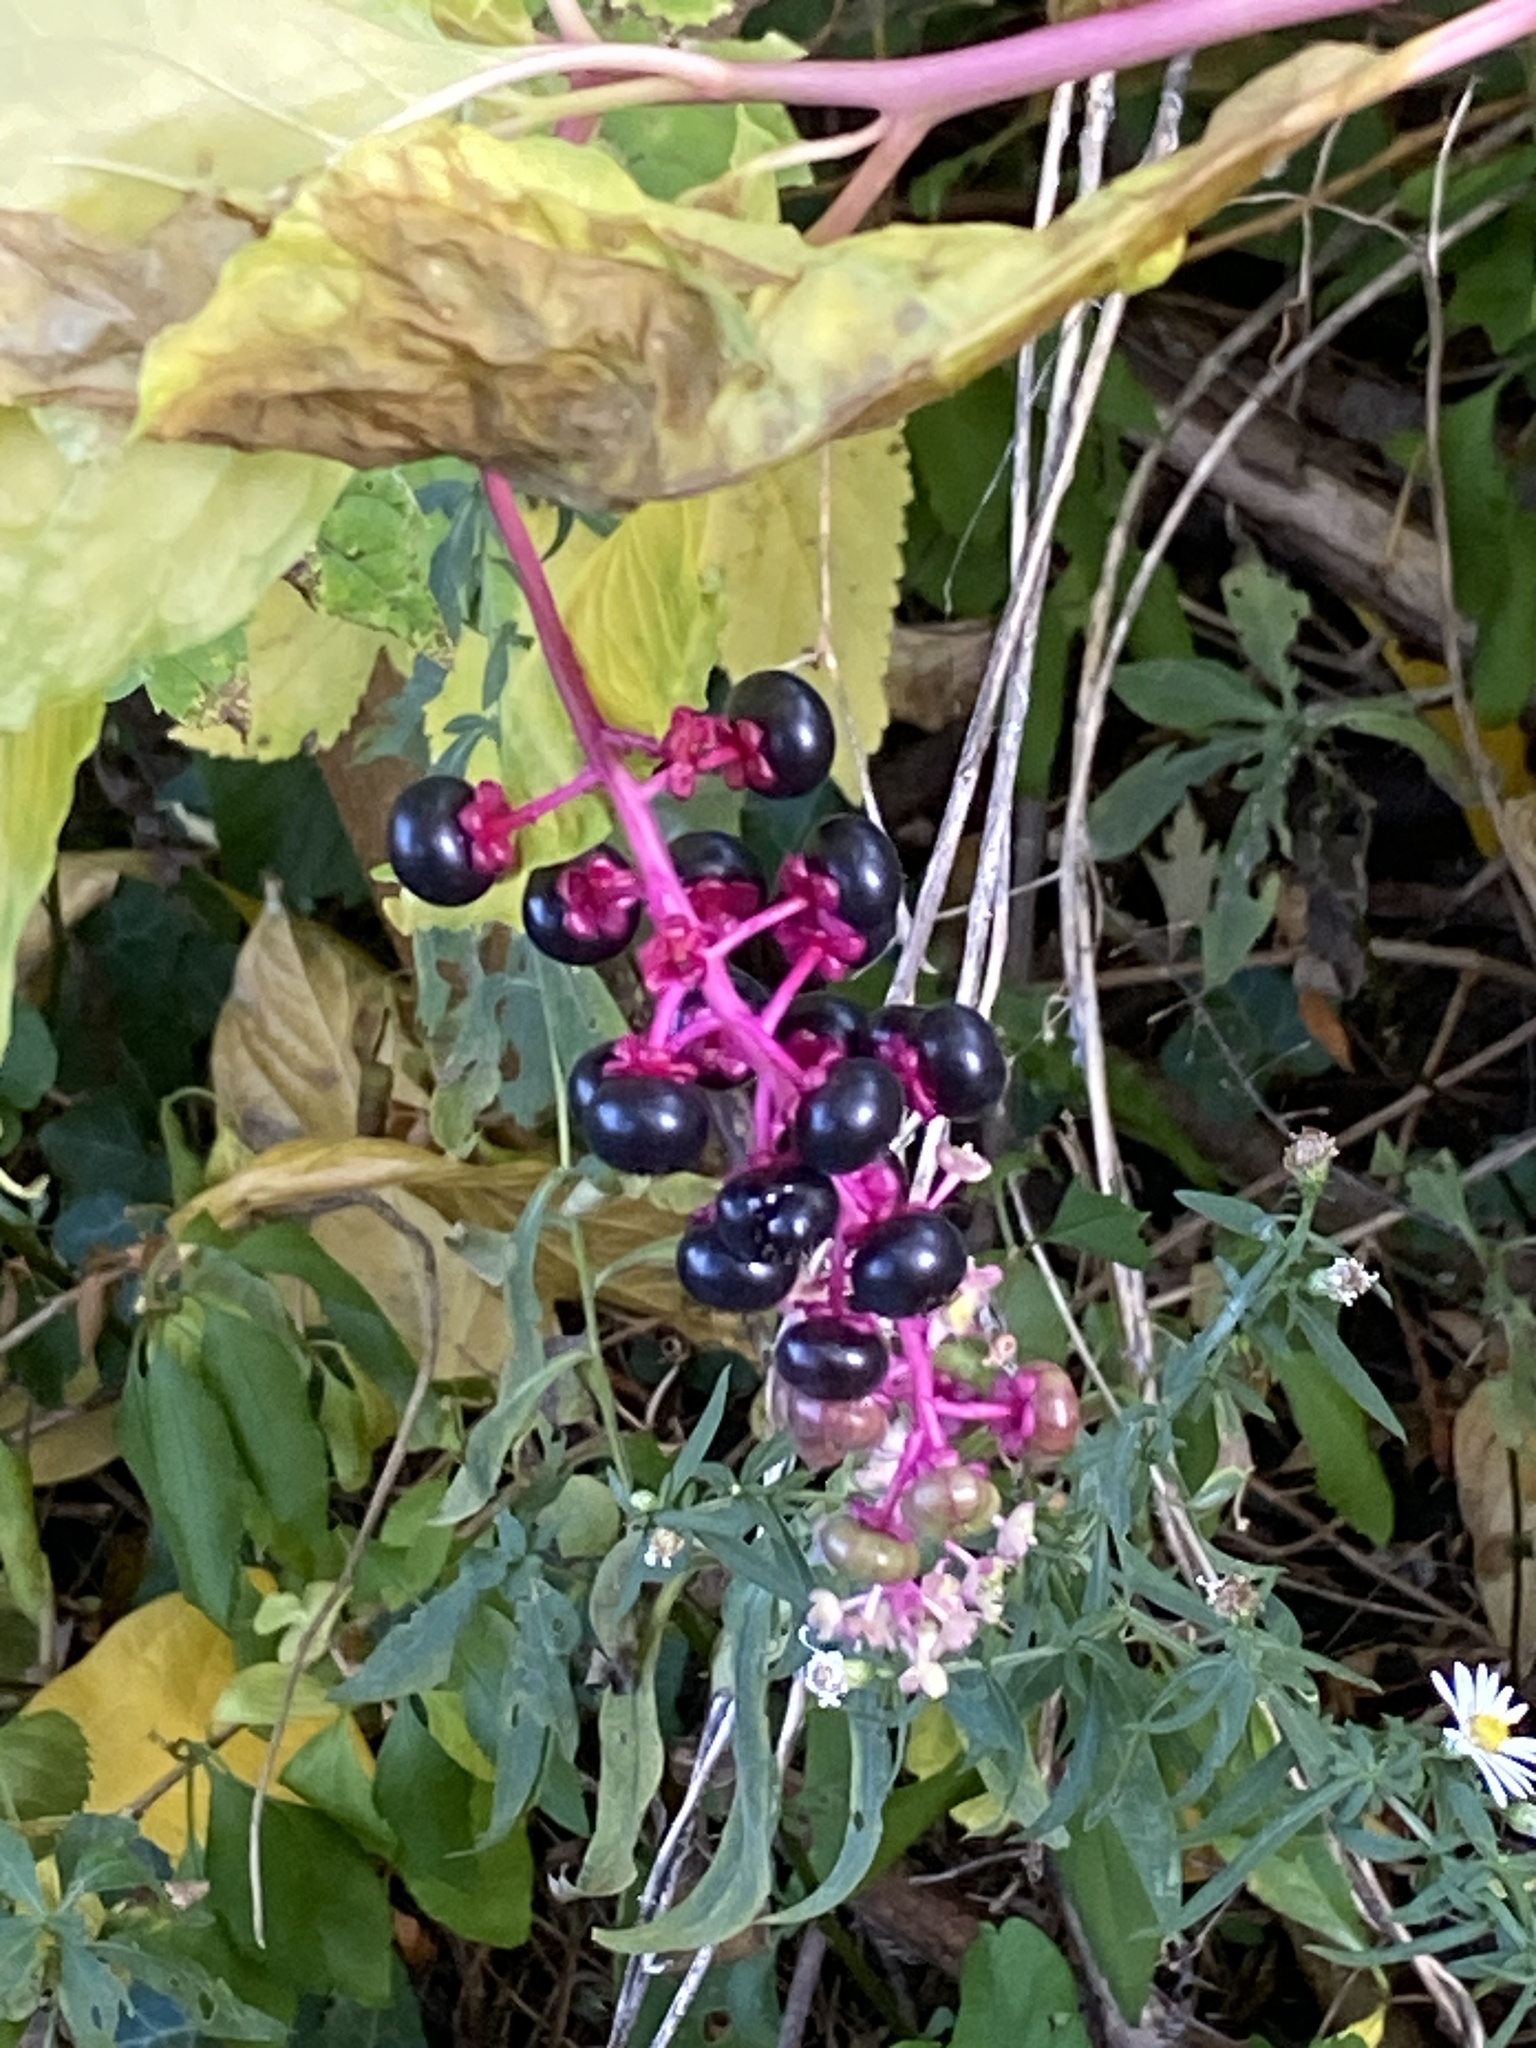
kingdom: Plantae
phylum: Tracheophyta
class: Magnoliopsida
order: Caryophyllales
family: Phytolaccaceae
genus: Phytolacca
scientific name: Phytolacca americana
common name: American pokeweed
